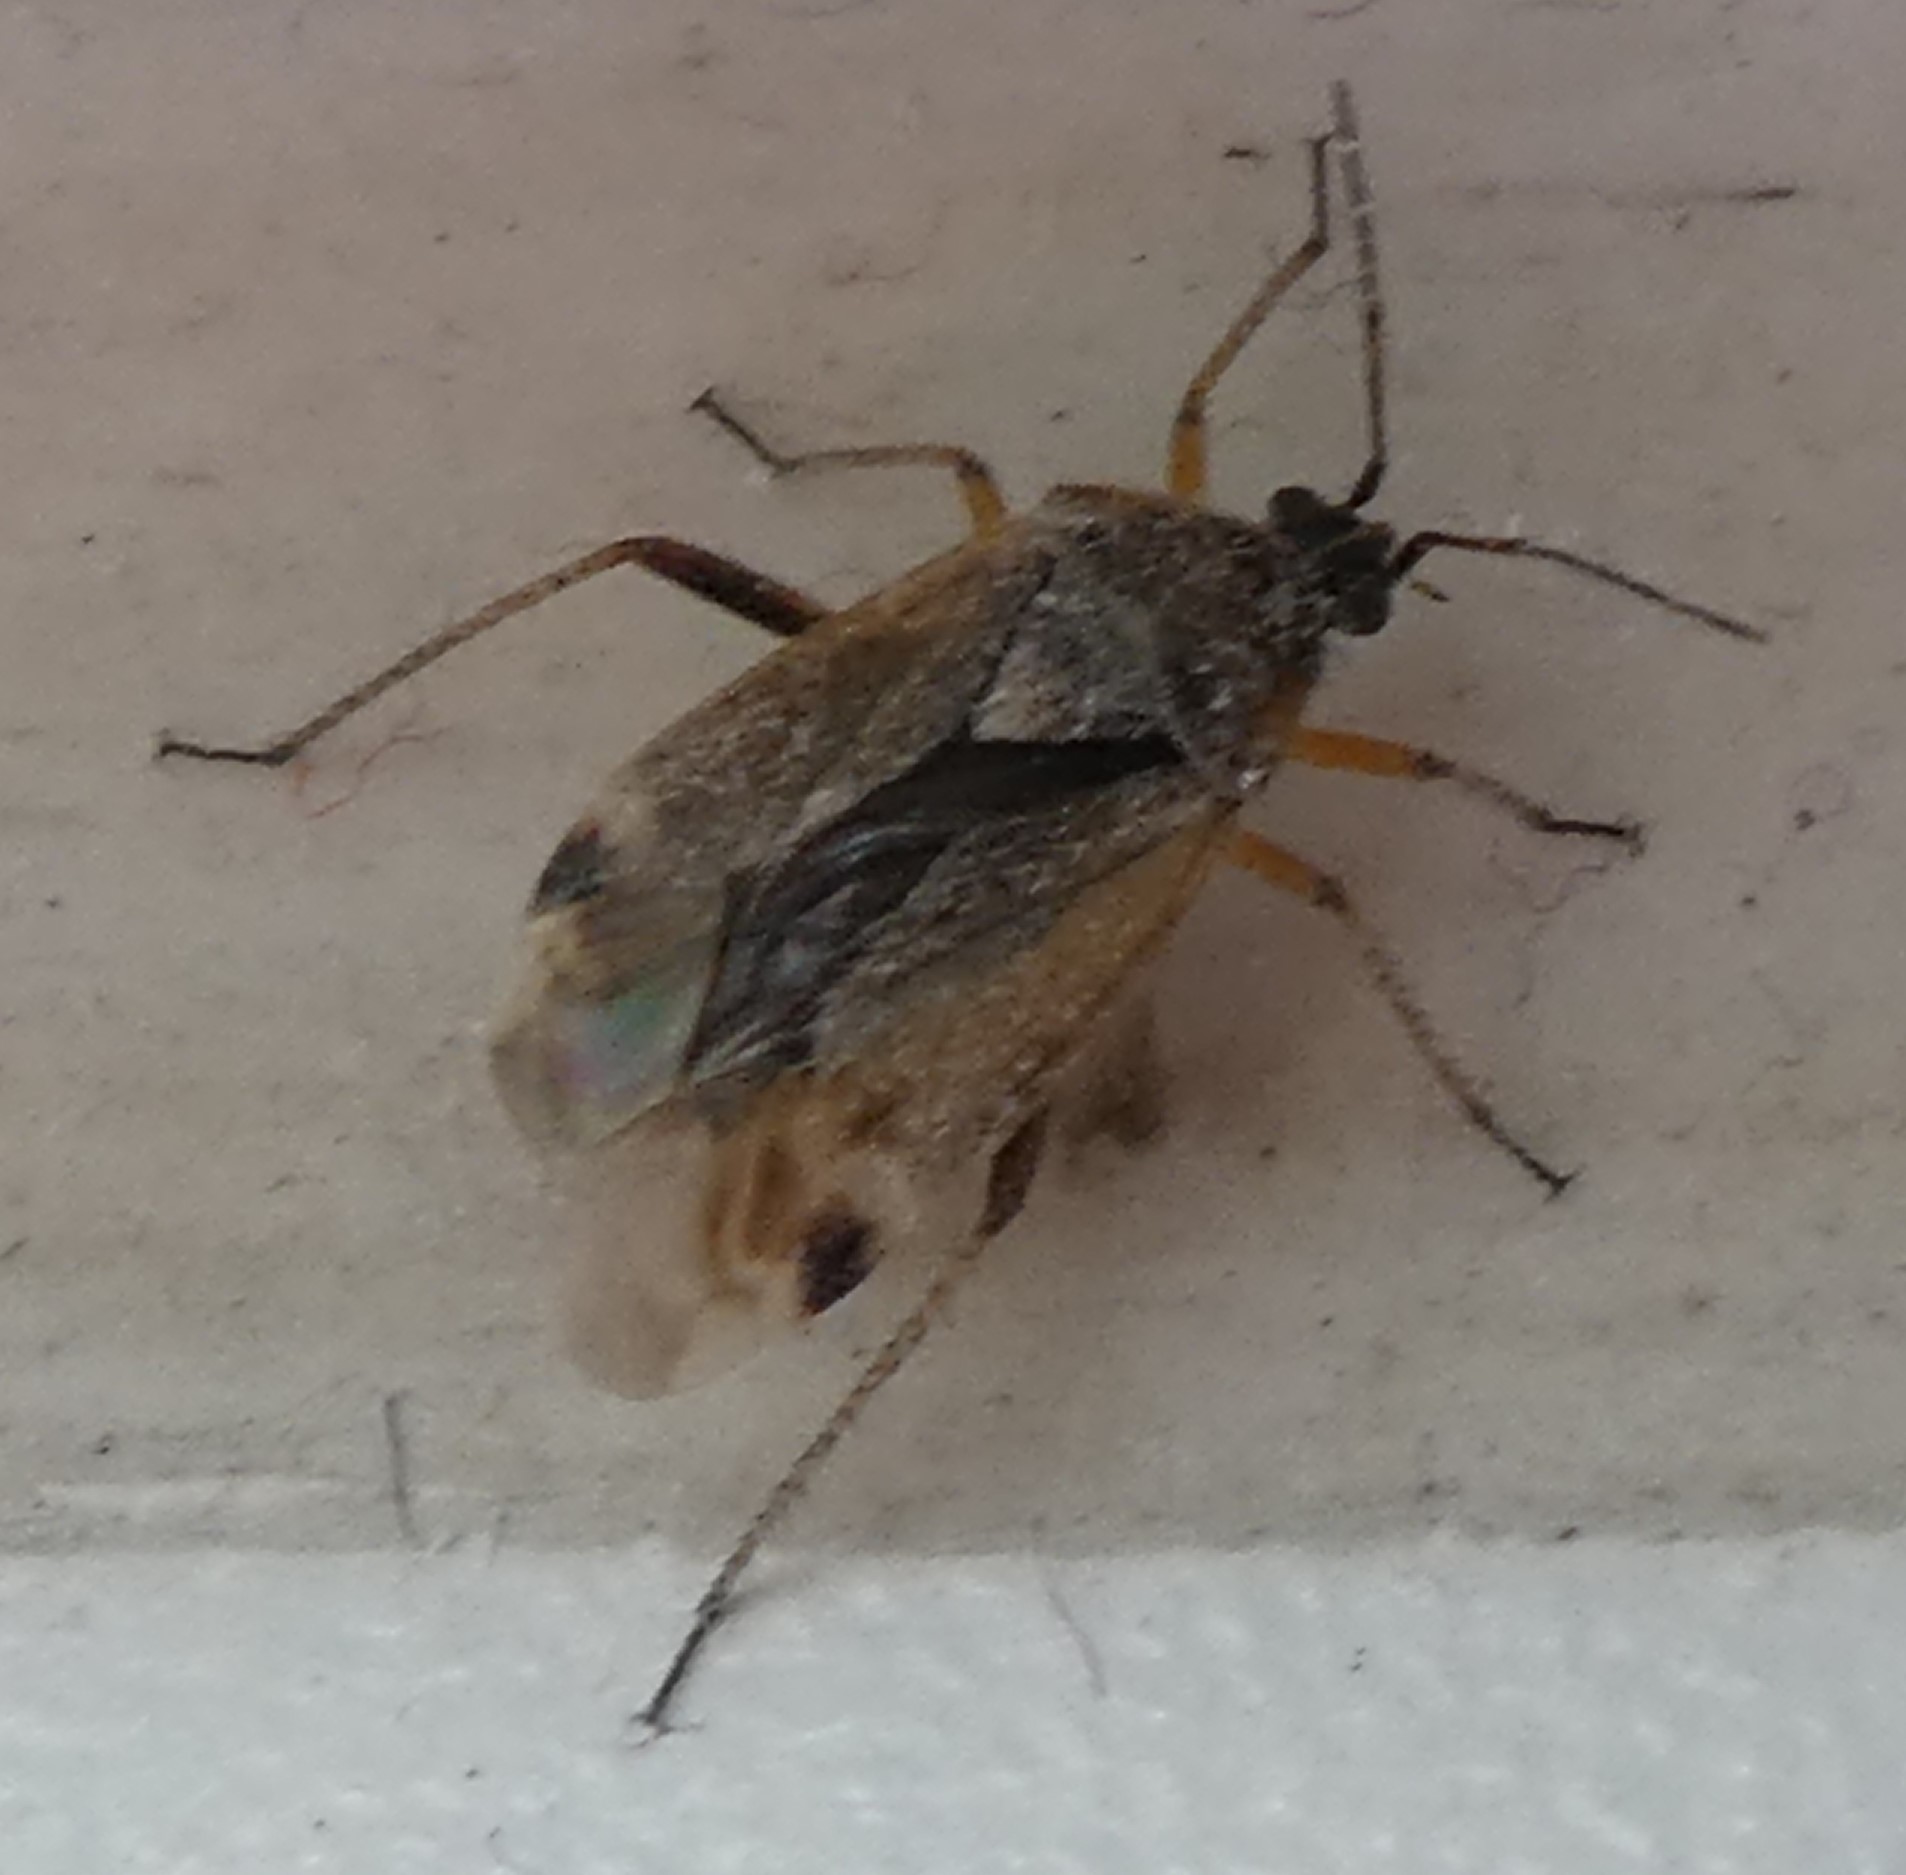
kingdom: Animalia
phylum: Arthropoda
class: Insecta
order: Hemiptera
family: Miridae
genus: Harpocera
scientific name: Harpocera thoracica
